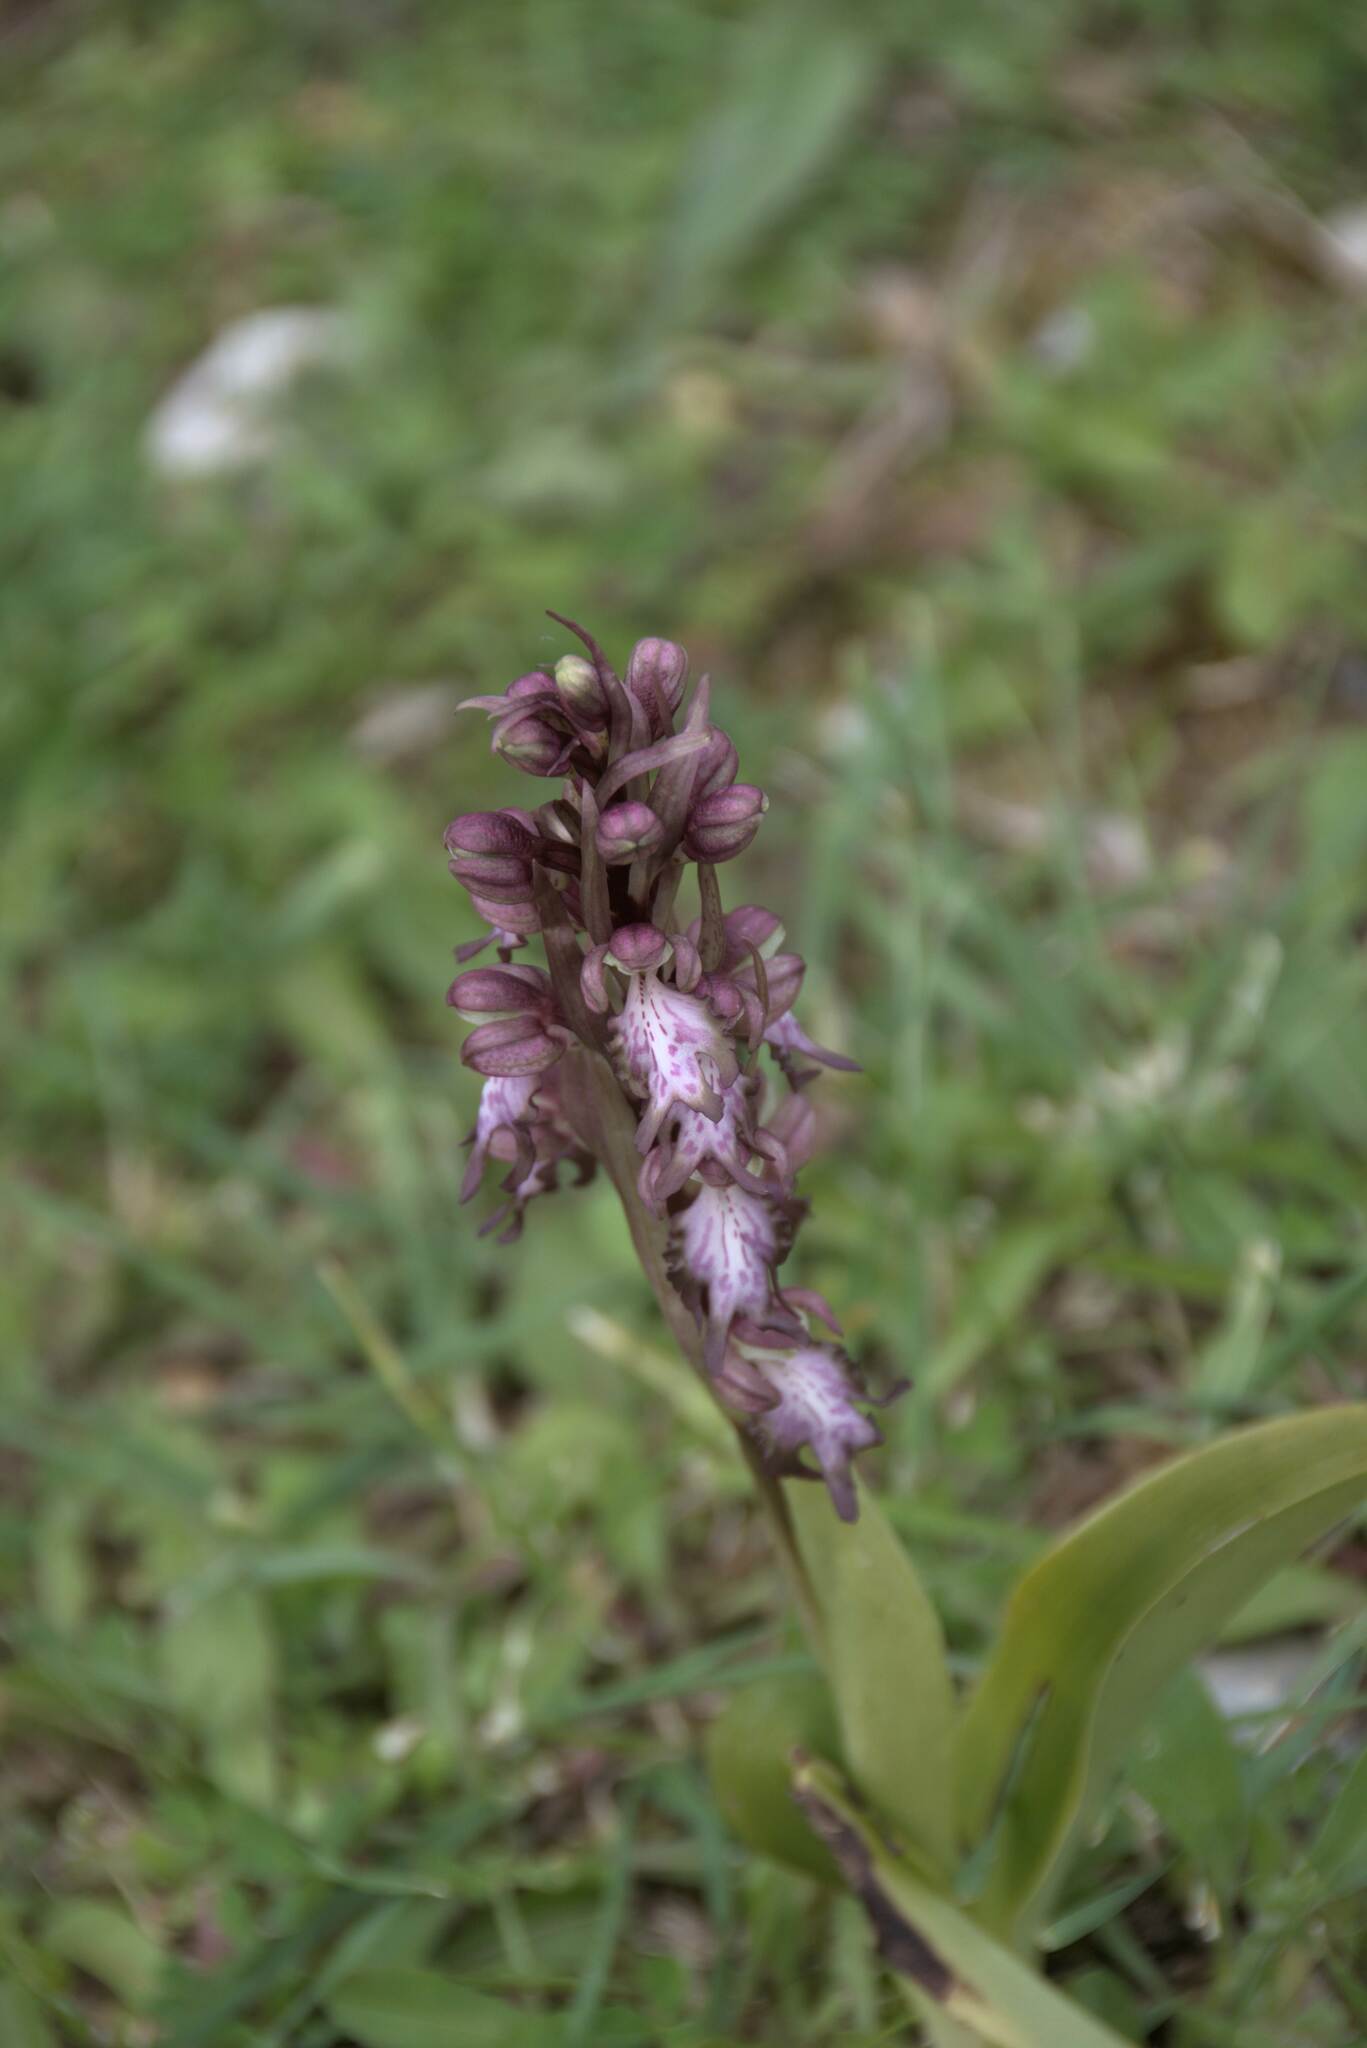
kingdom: Plantae
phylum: Tracheophyta
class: Liliopsida
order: Asparagales
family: Orchidaceae
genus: Himantoglossum
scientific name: Himantoglossum robertianum
